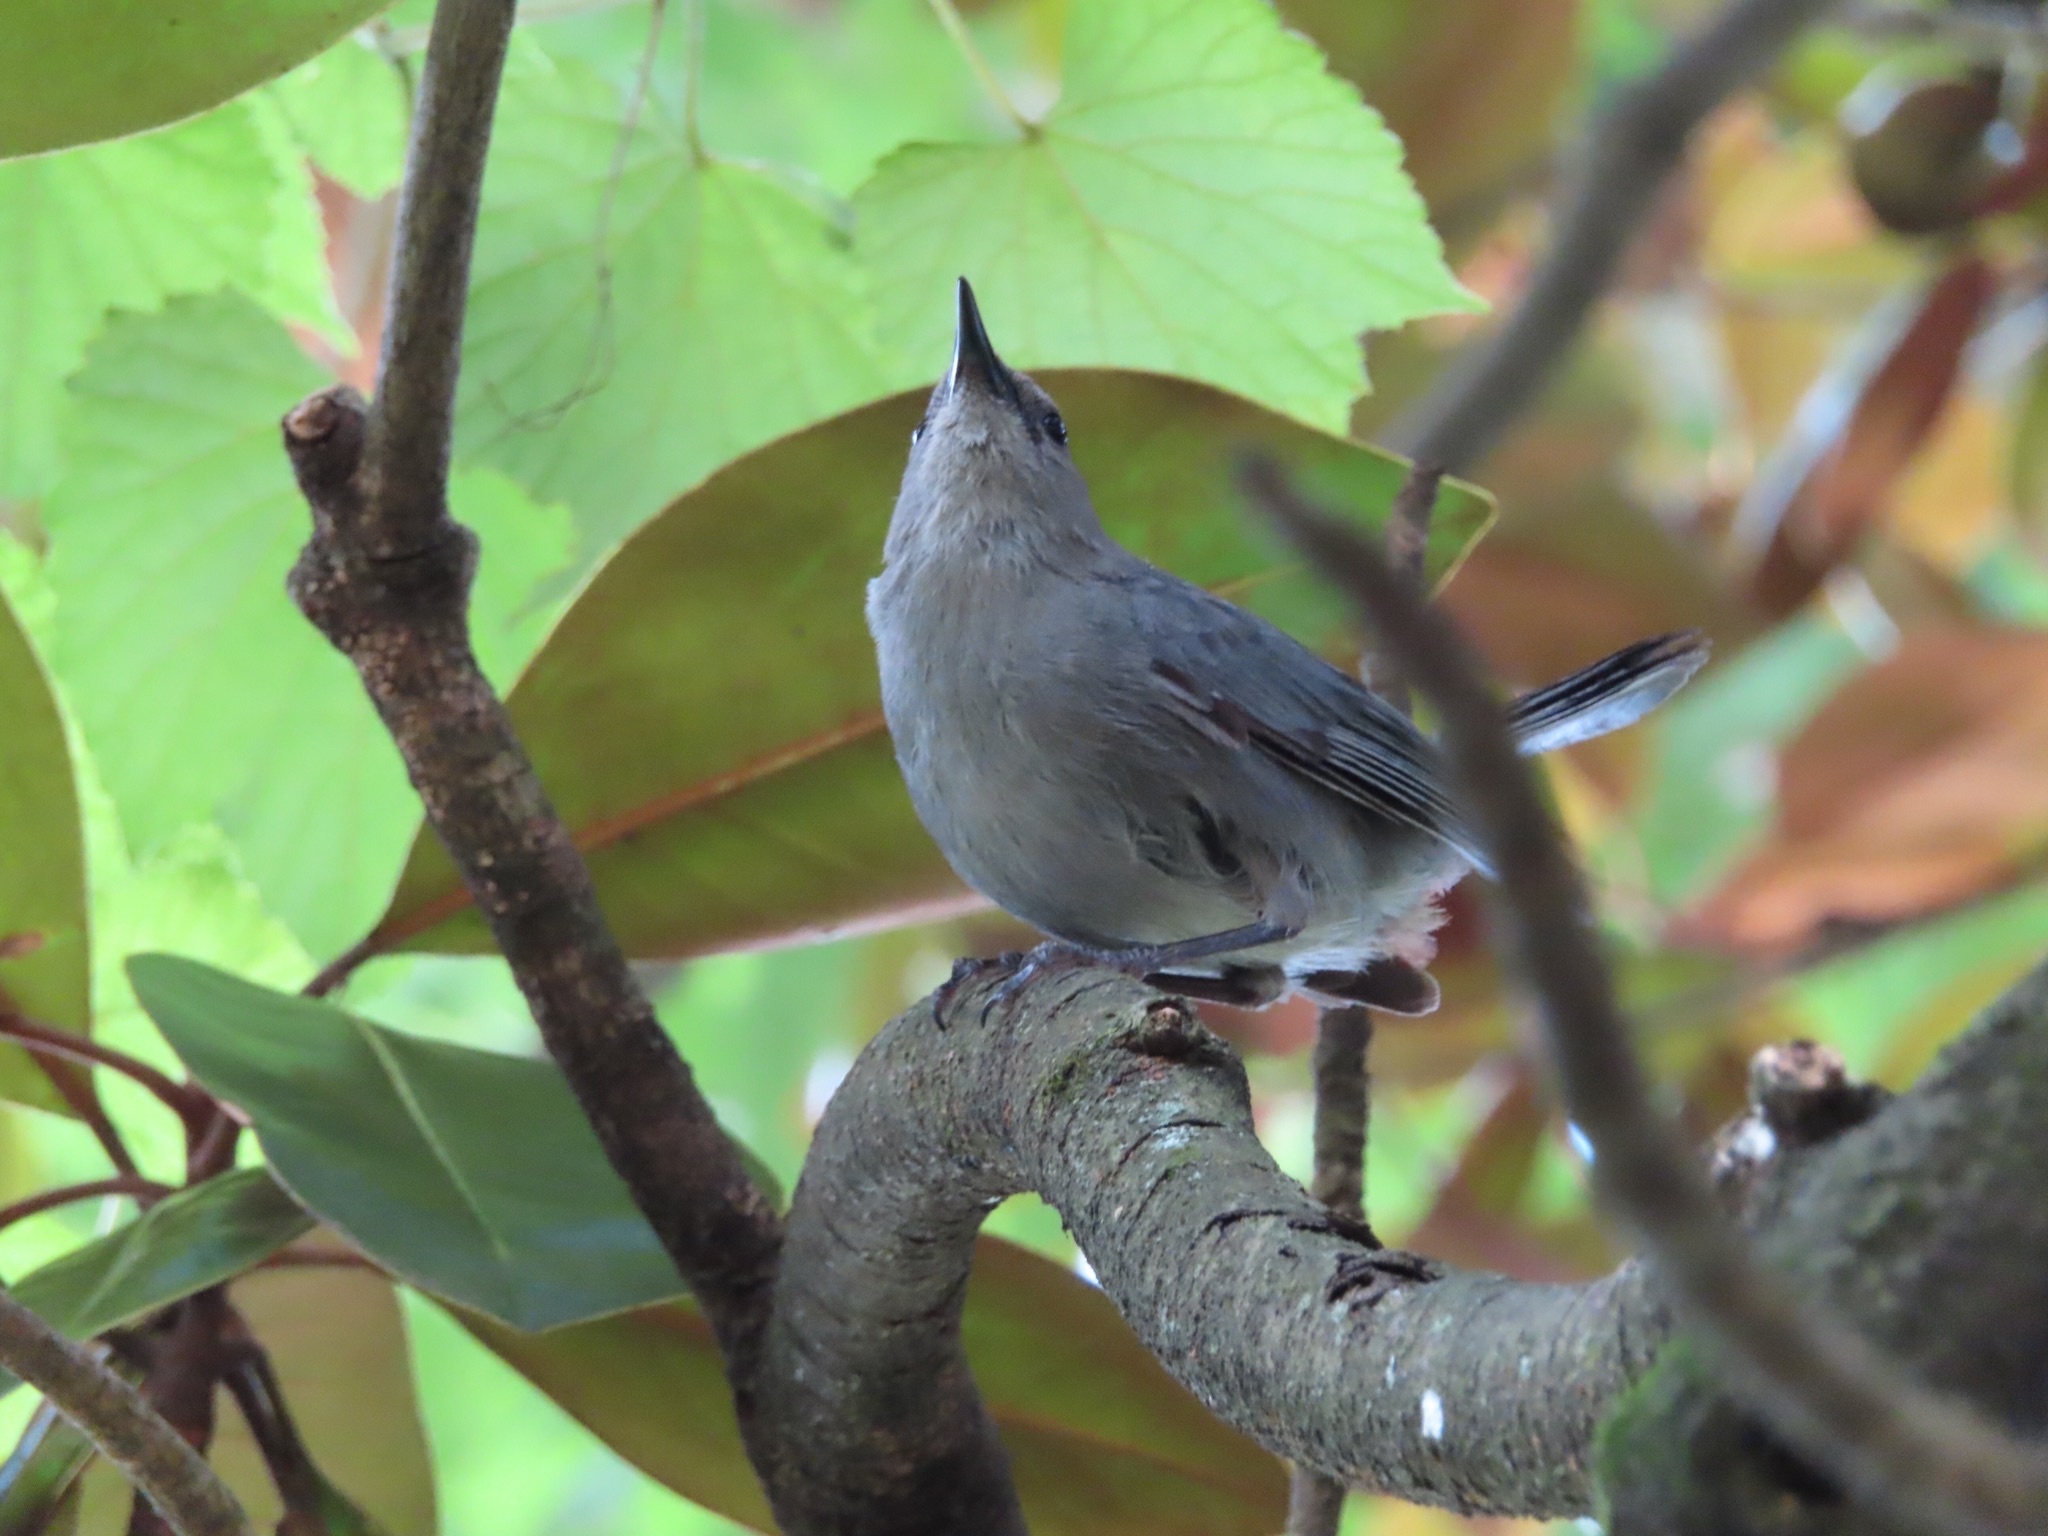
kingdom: Animalia
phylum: Chordata
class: Aves
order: Passeriformes
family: Mimidae
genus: Dumetella
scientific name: Dumetella carolinensis
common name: Gray catbird
